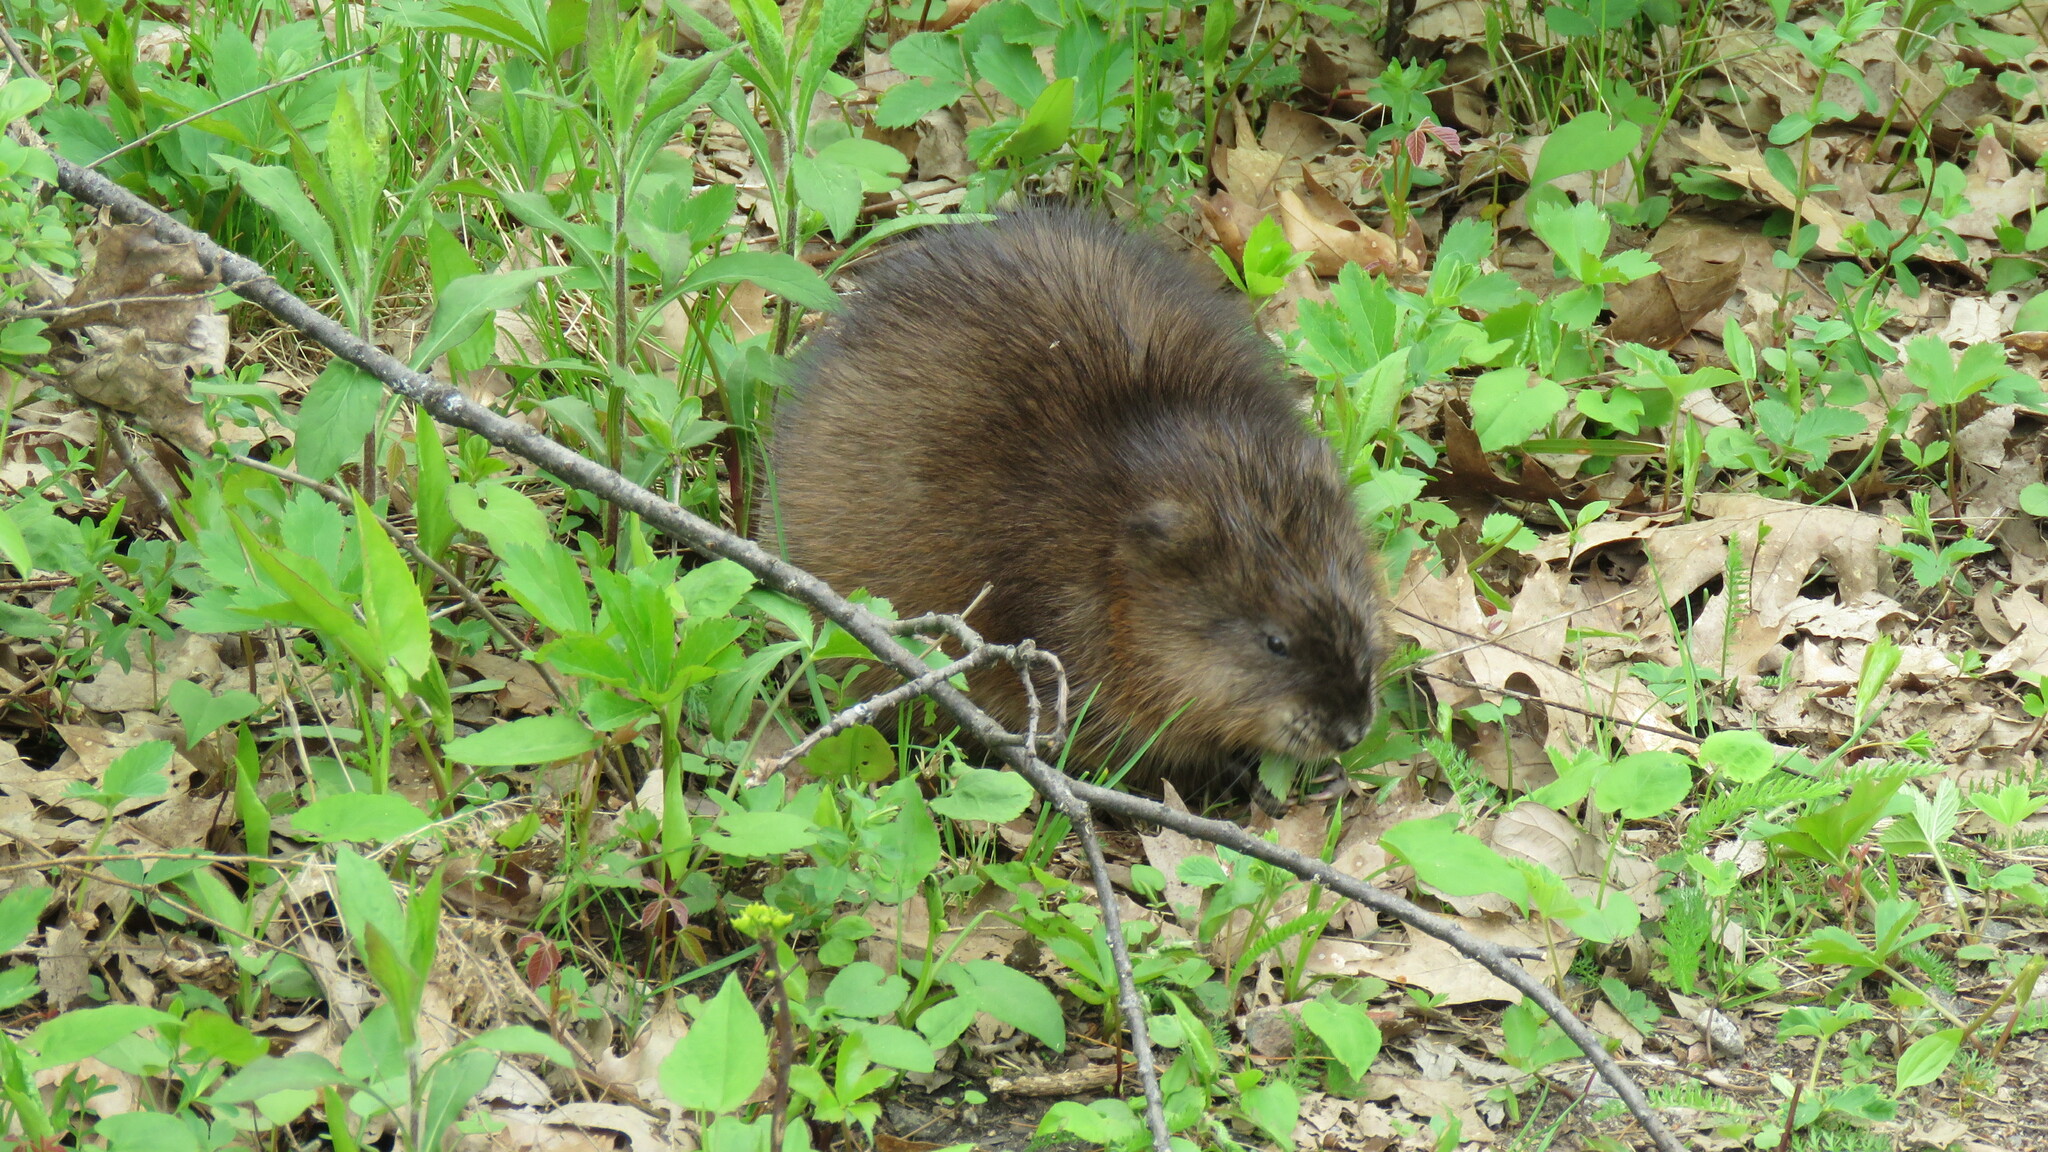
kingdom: Animalia
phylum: Chordata
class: Mammalia
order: Rodentia
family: Cricetidae
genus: Ondatra
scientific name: Ondatra zibethicus
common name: Muskrat
